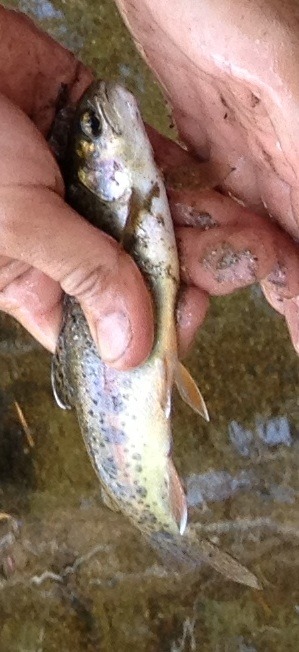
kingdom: Animalia
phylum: Chordata
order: Salmoniformes
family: Salmonidae
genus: Oncorhynchus
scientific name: Oncorhynchus mykiss
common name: Rainbow trout
